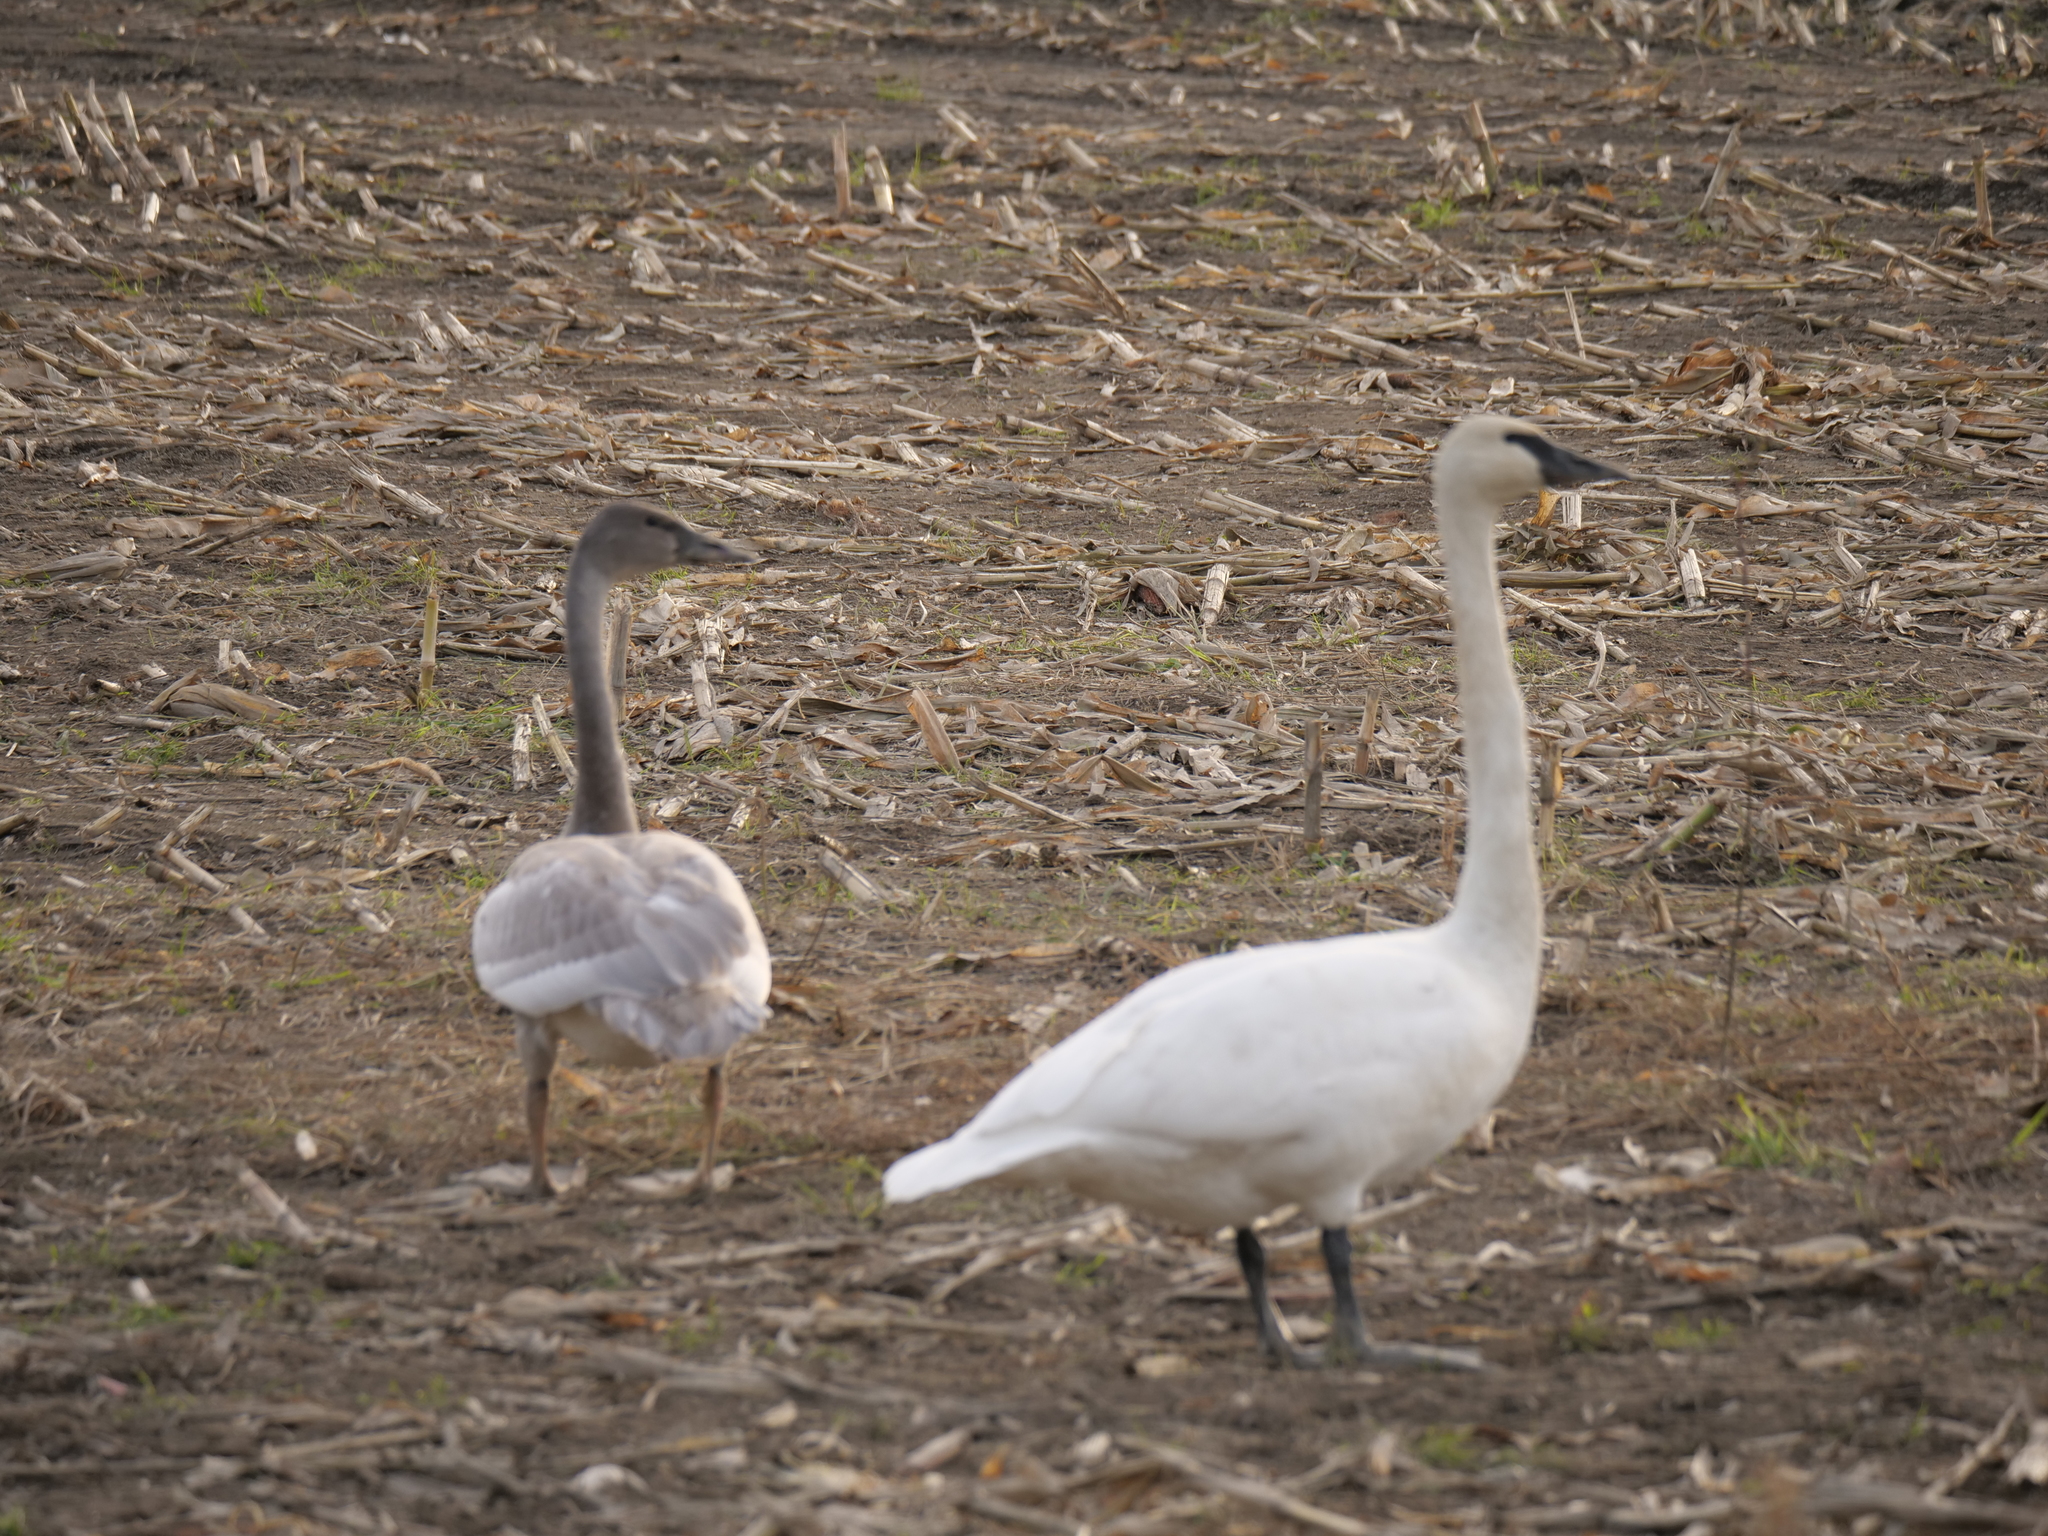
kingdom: Animalia
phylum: Chordata
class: Aves
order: Anseriformes
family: Anatidae
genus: Cygnus
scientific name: Cygnus buccinator
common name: Trumpeter swan
